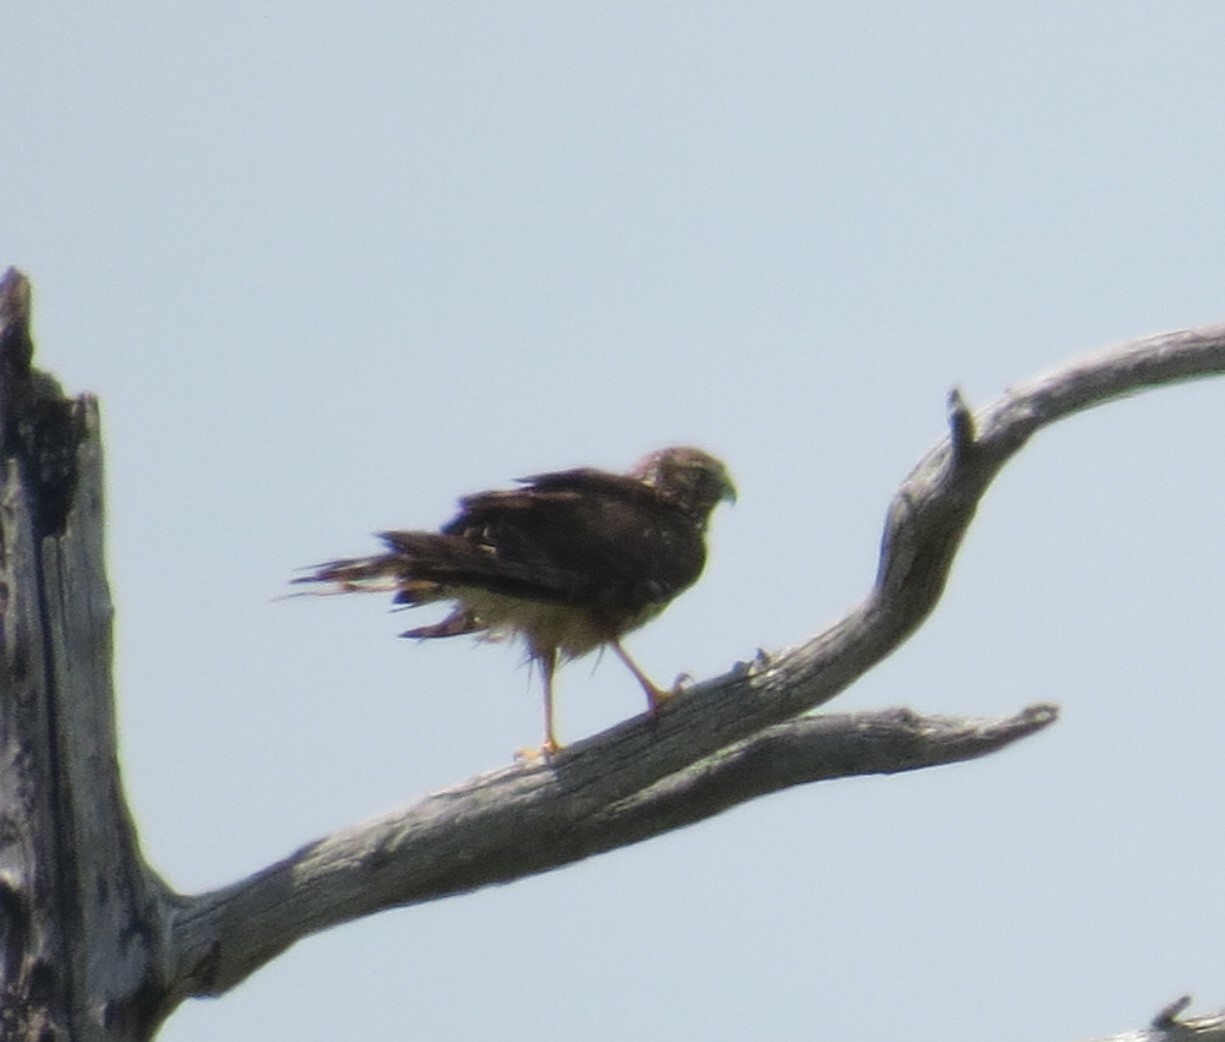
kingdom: Animalia
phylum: Chordata
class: Aves
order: Accipitriformes
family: Accipitridae
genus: Circus
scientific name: Circus cyaneus
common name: Hen harrier
